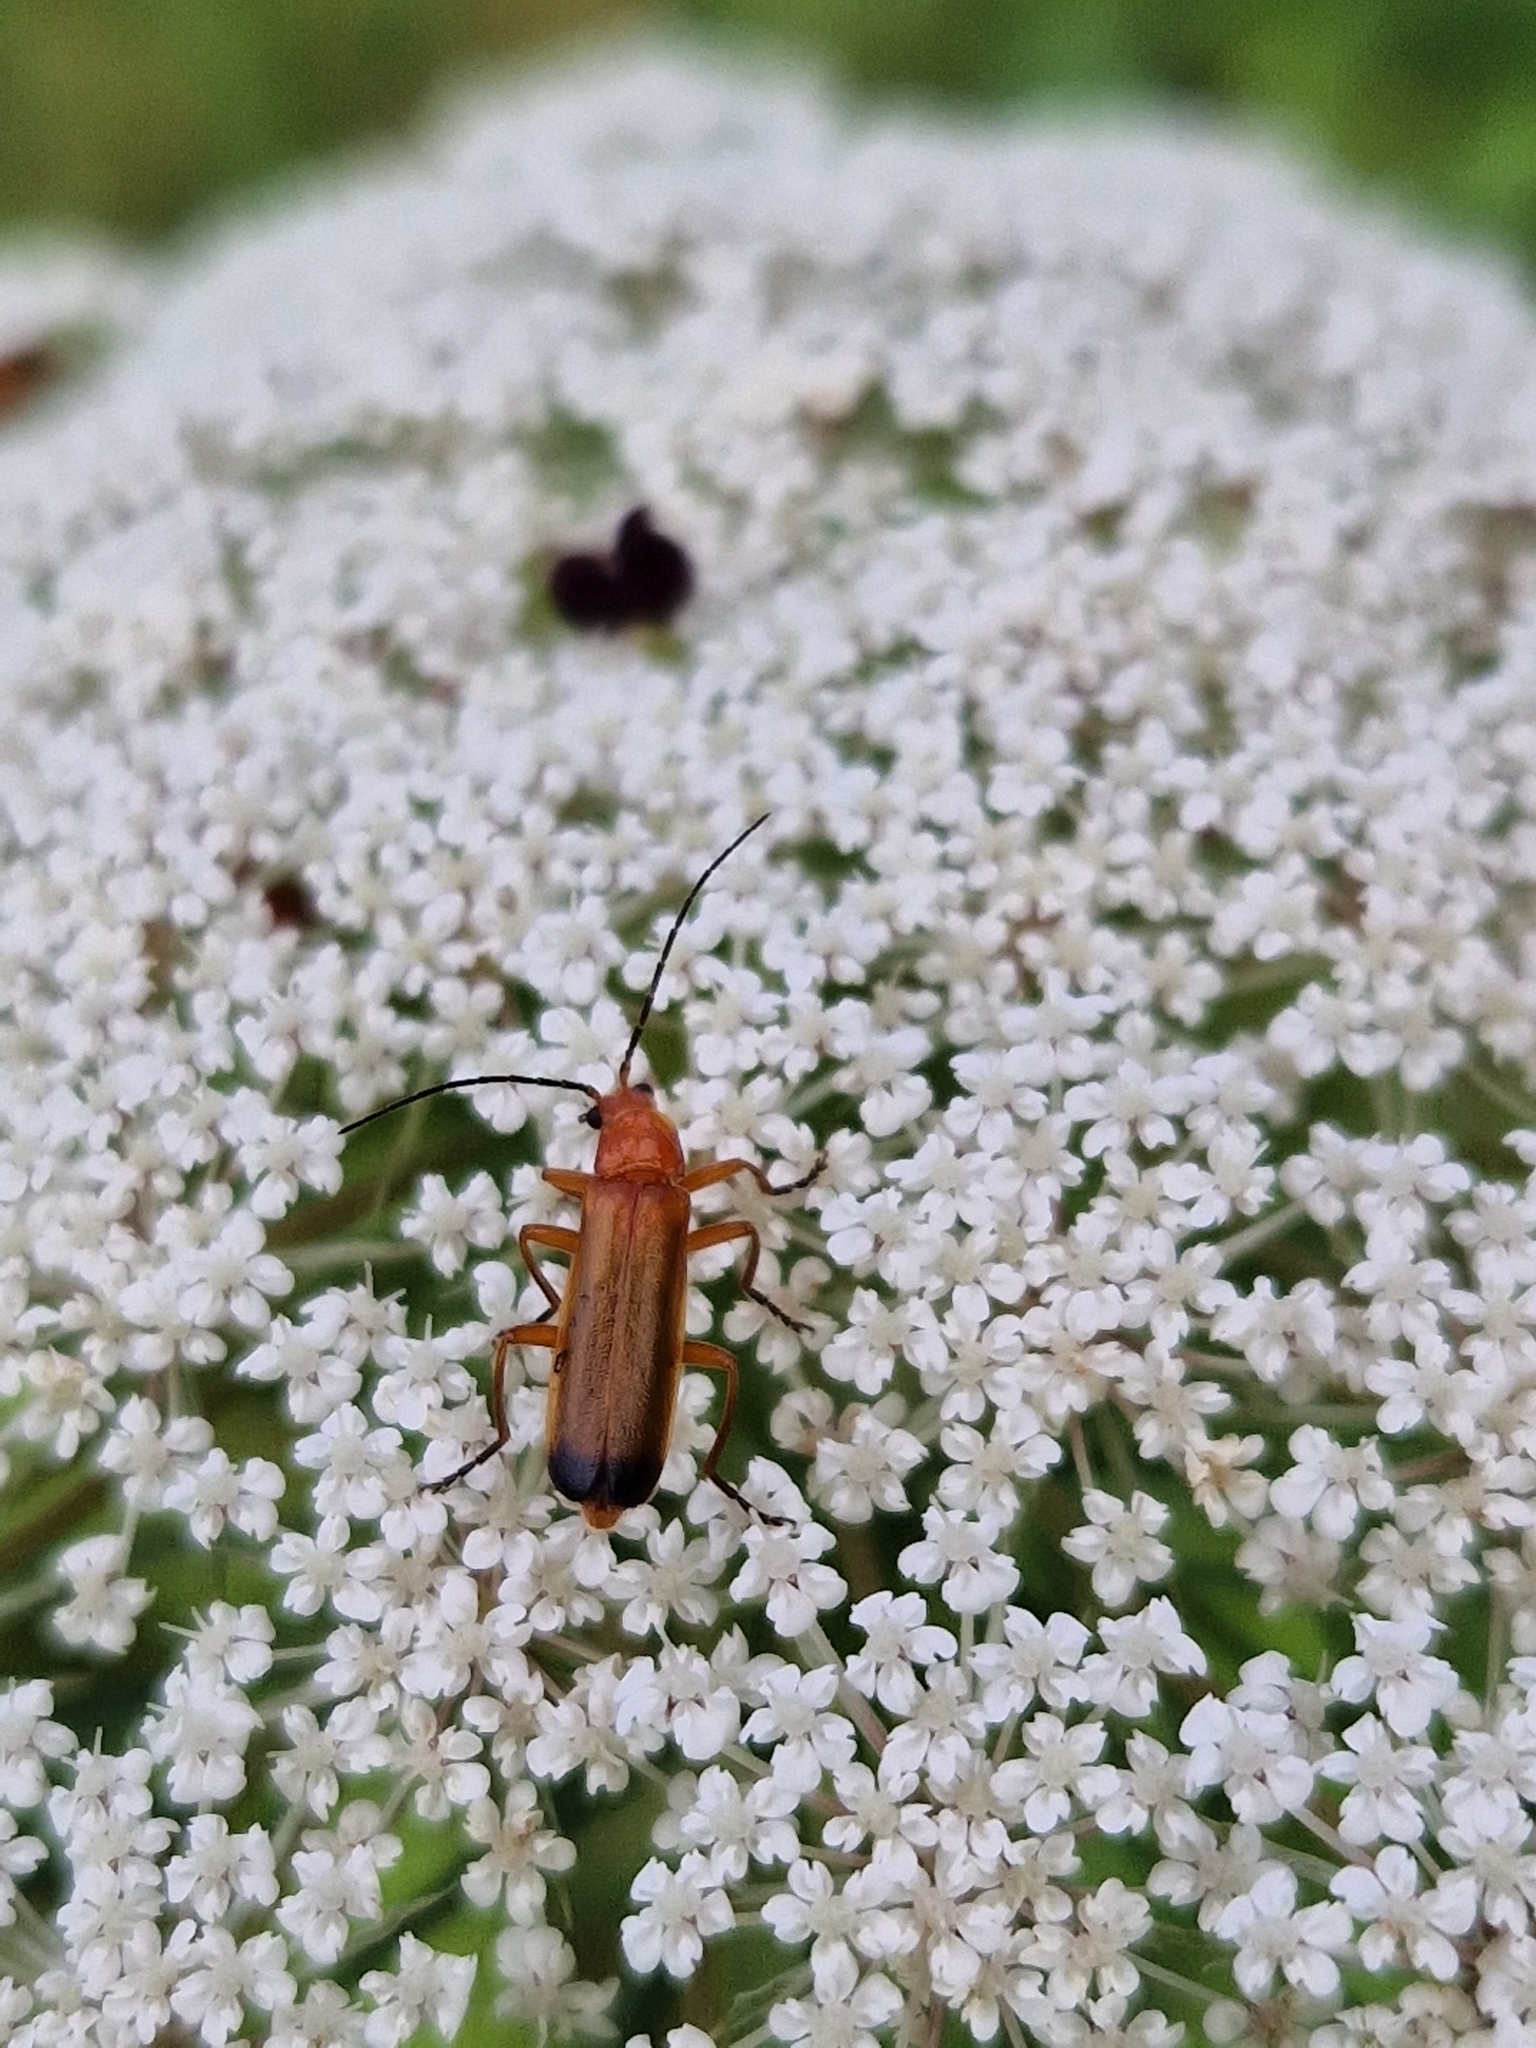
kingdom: Animalia
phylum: Arthropoda
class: Insecta
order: Coleoptera
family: Cantharidae
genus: Rhagonycha
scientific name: Rhagonycha fulva
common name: Common red soldier beetle
